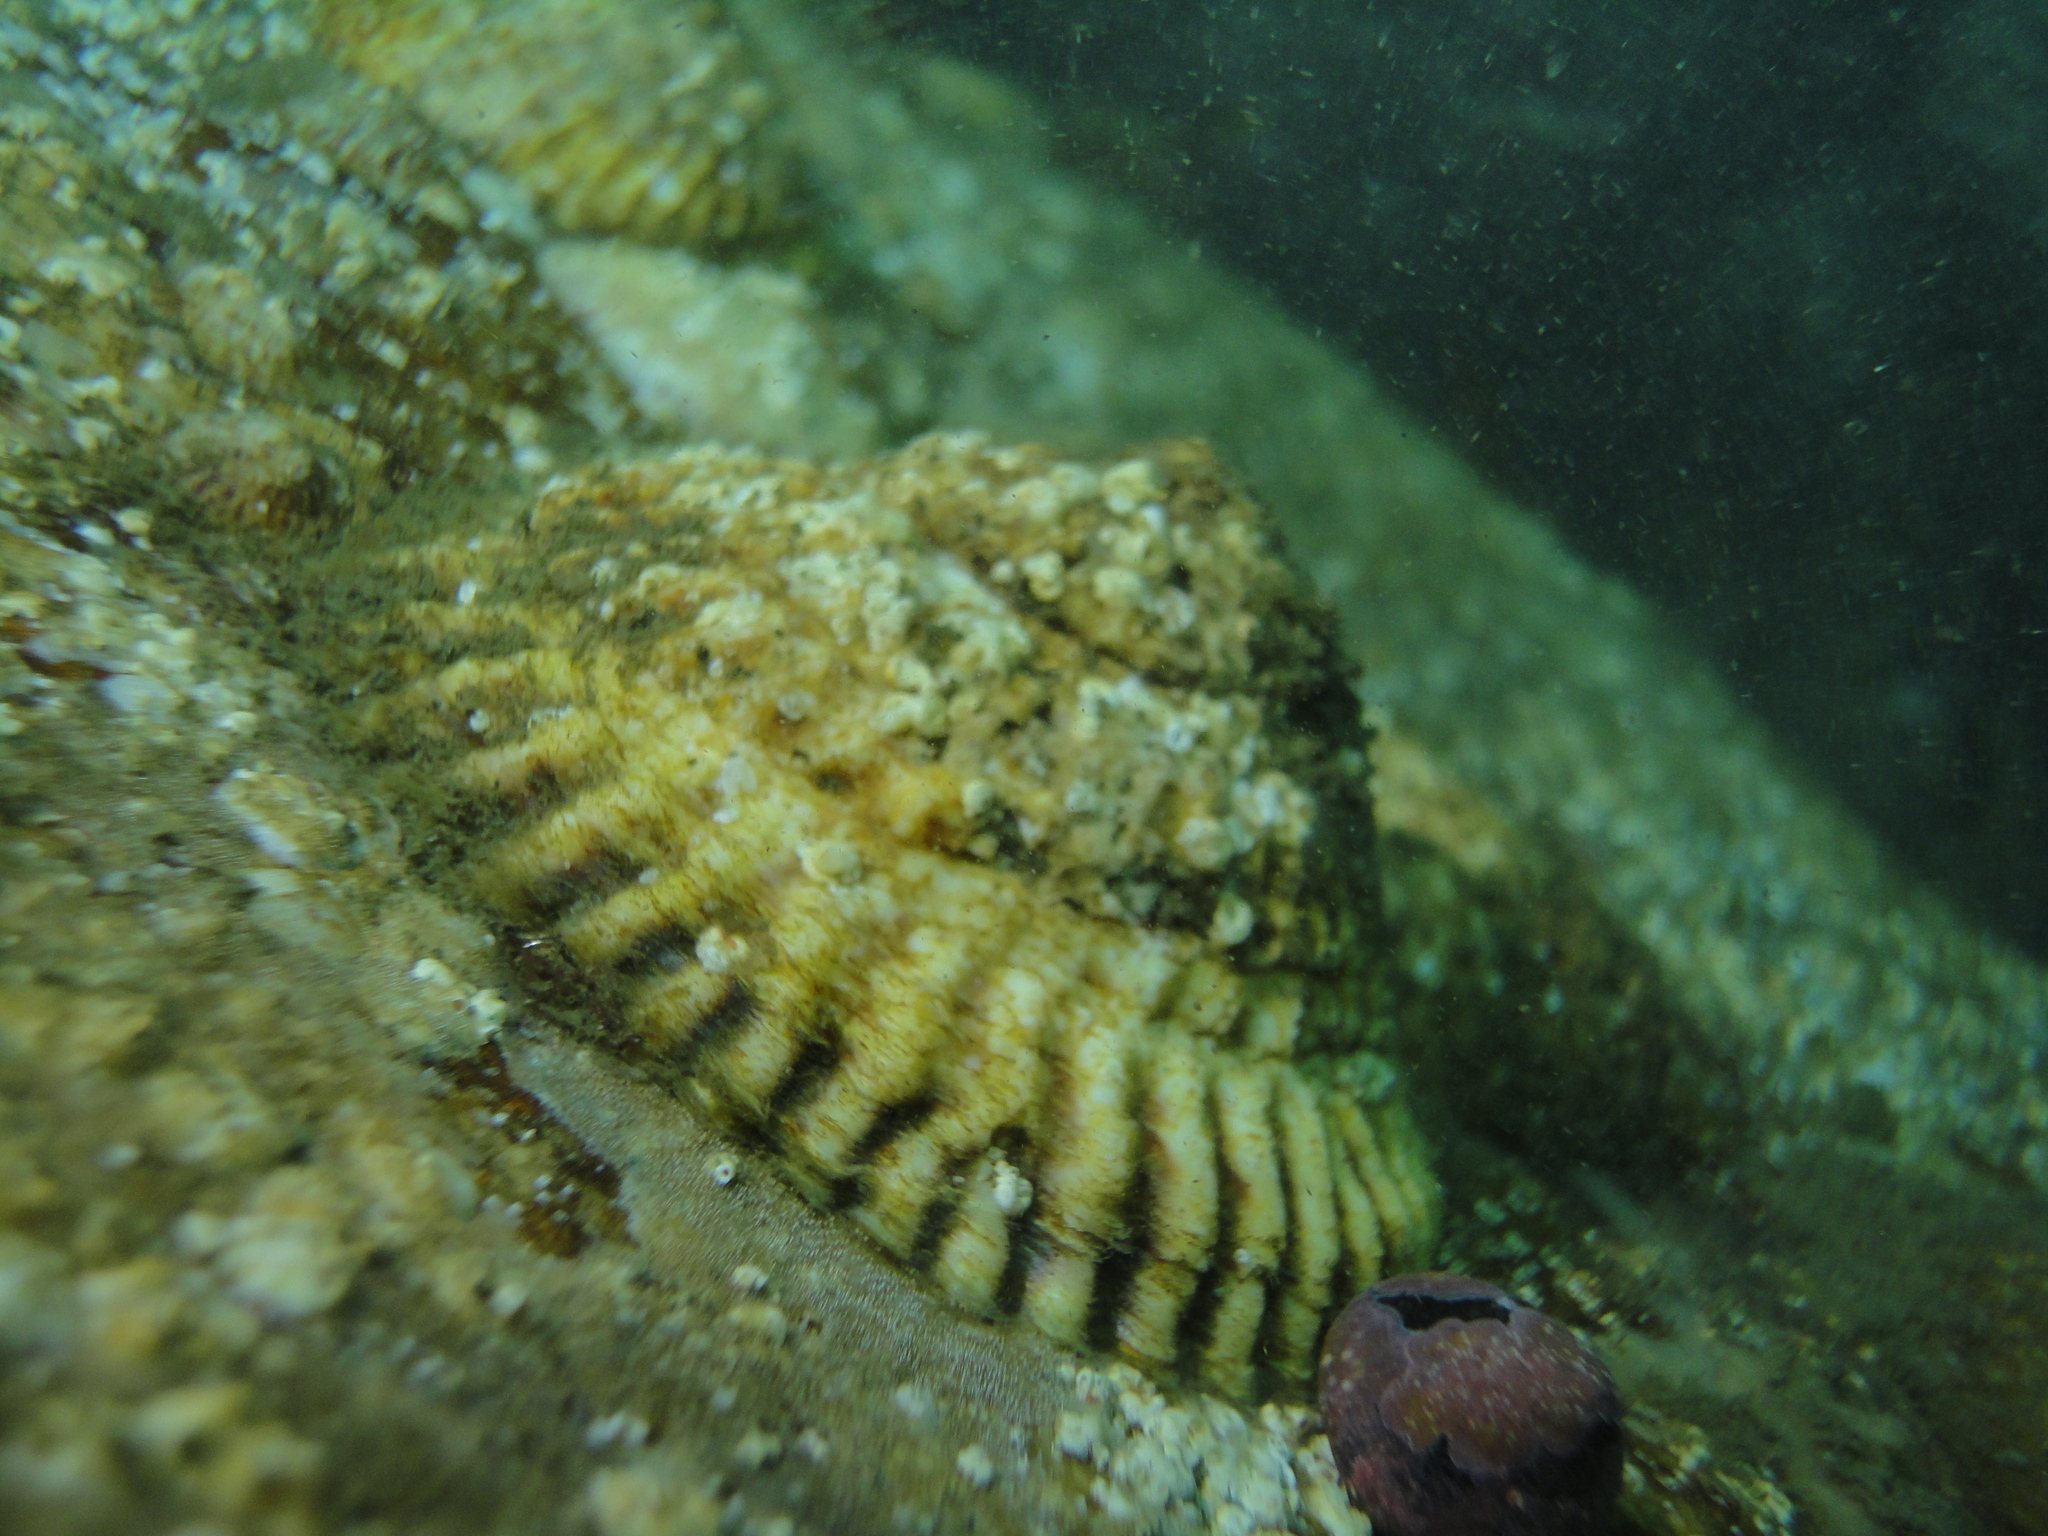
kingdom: Animalia
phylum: Mollusca
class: Gastropoda
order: Littorinimorpha
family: Calyptraeidae
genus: Trochita
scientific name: Trochita trochiformis
